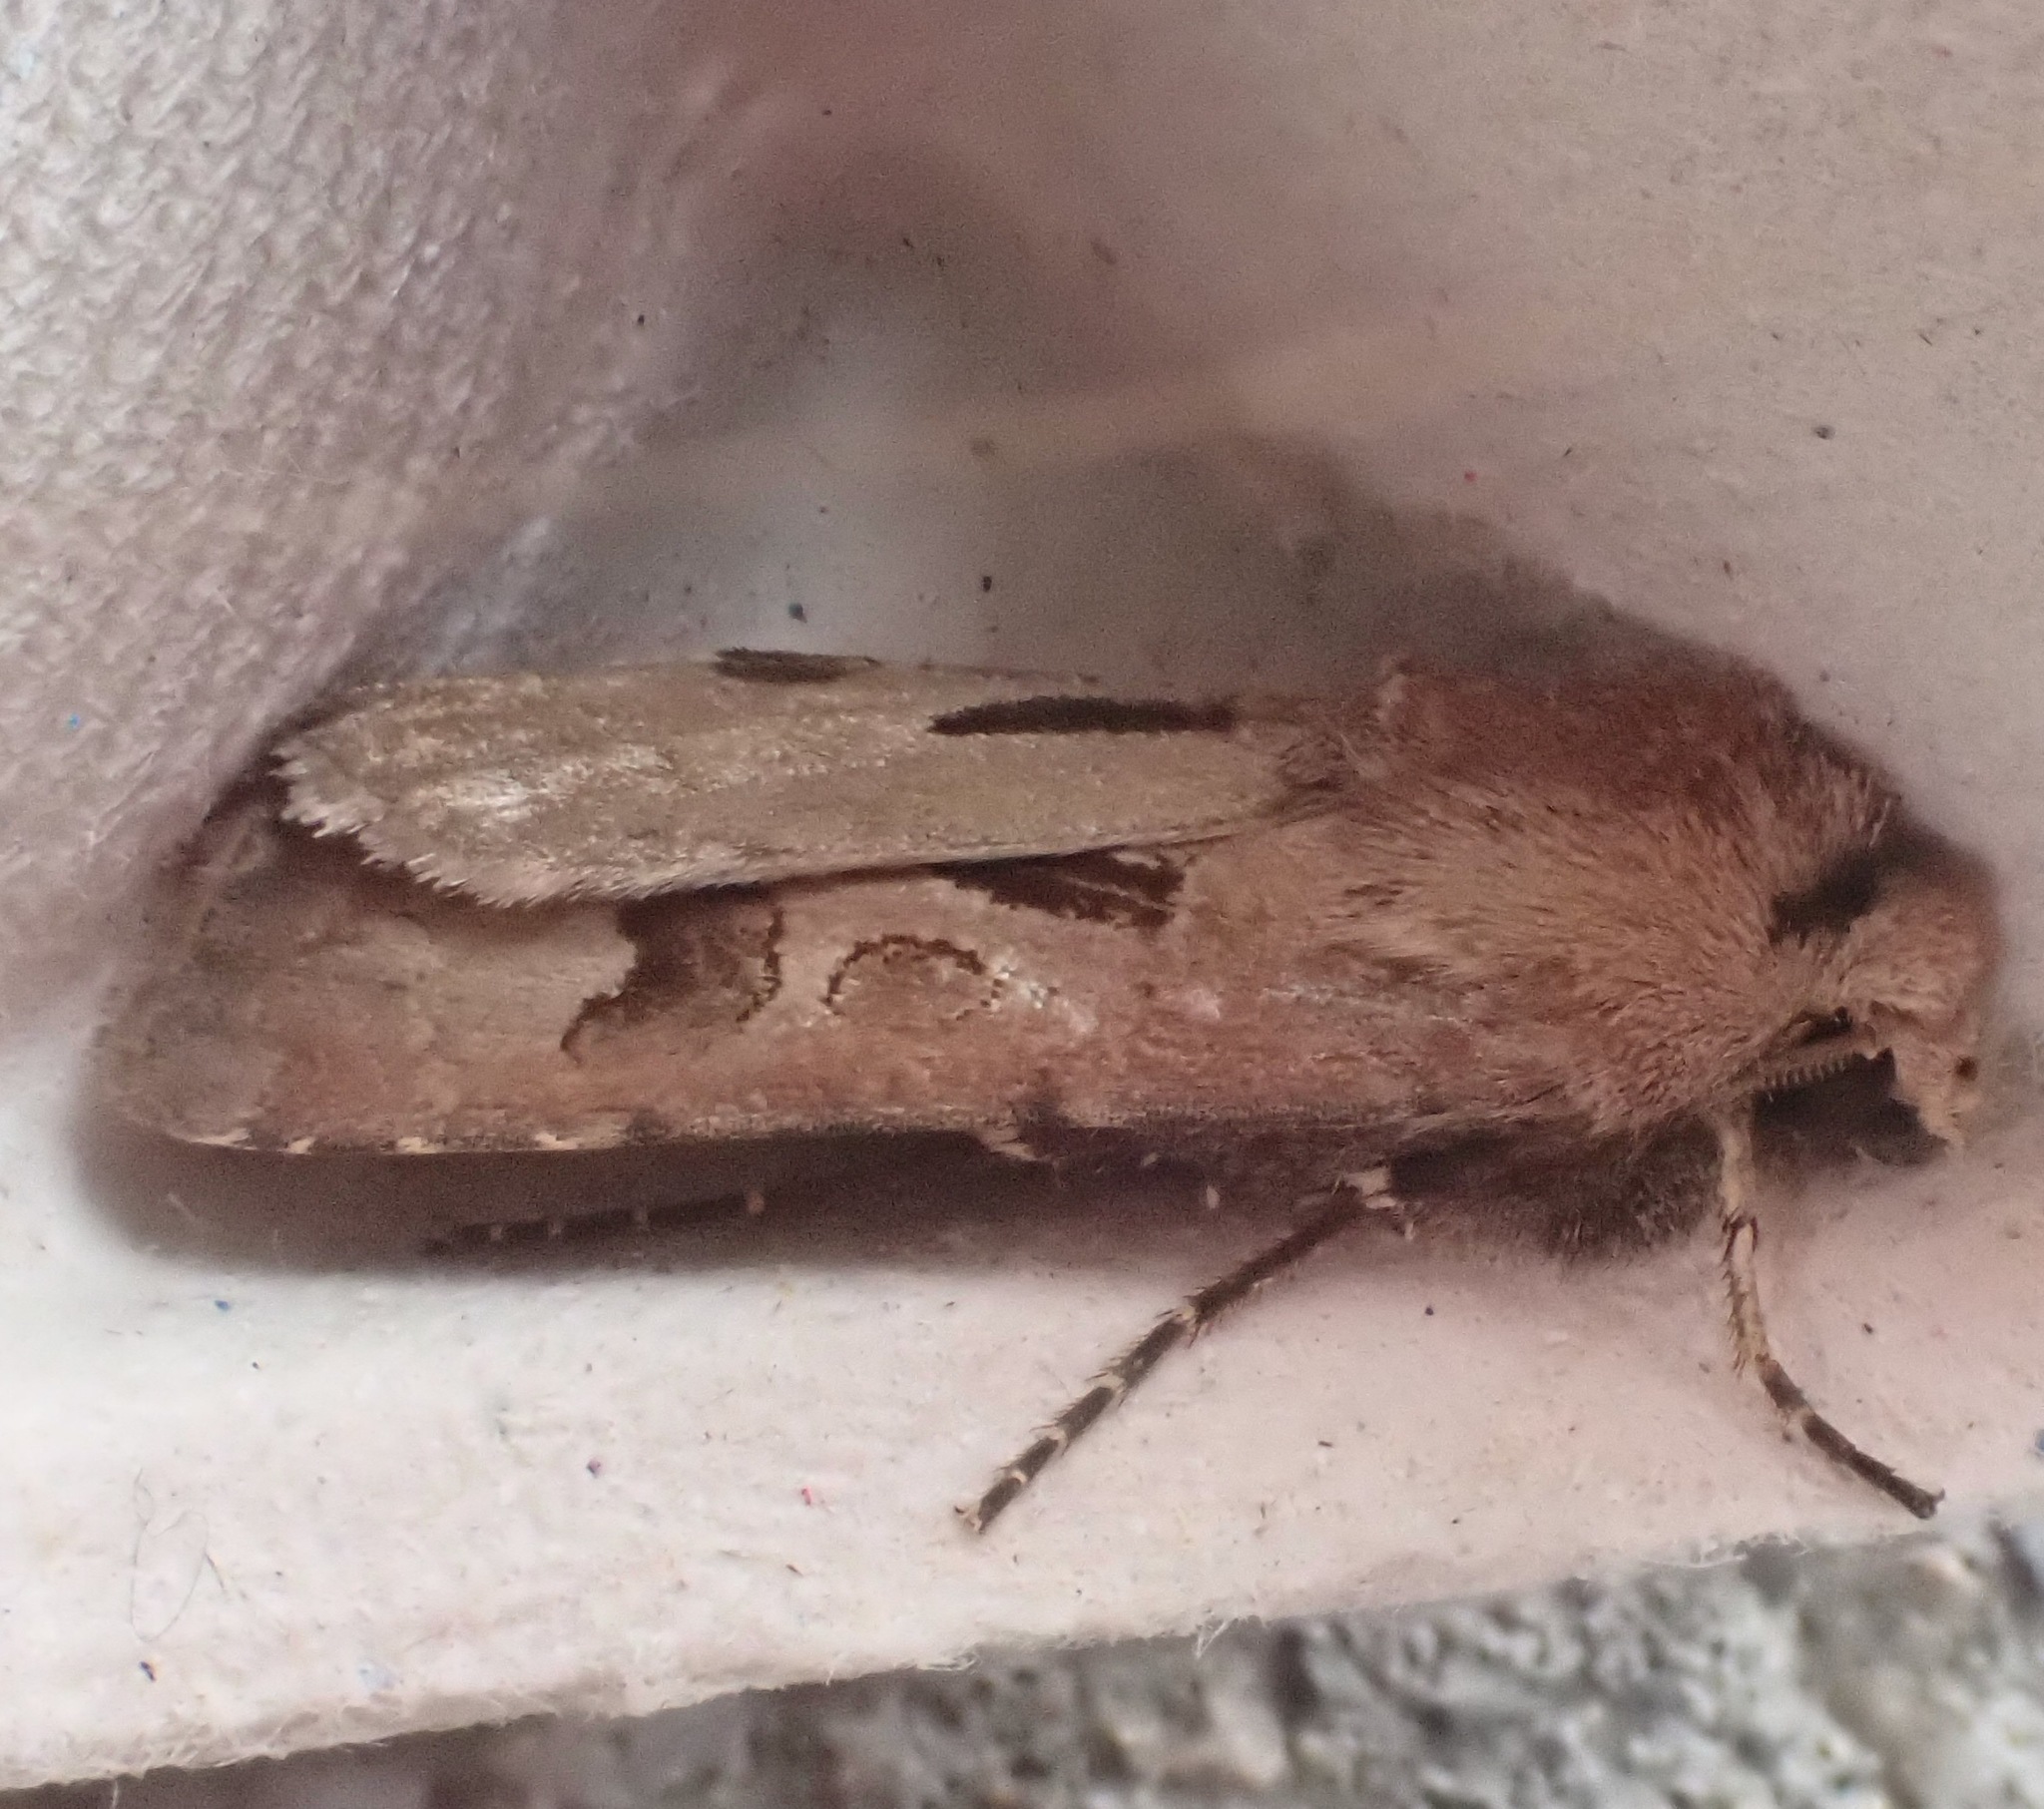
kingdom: Animalia
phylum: Arthropoda
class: Insecta
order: Lepidoptera
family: Noctuidae
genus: Agrotis
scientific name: Agrotis exclamationis
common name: Heart and dart
